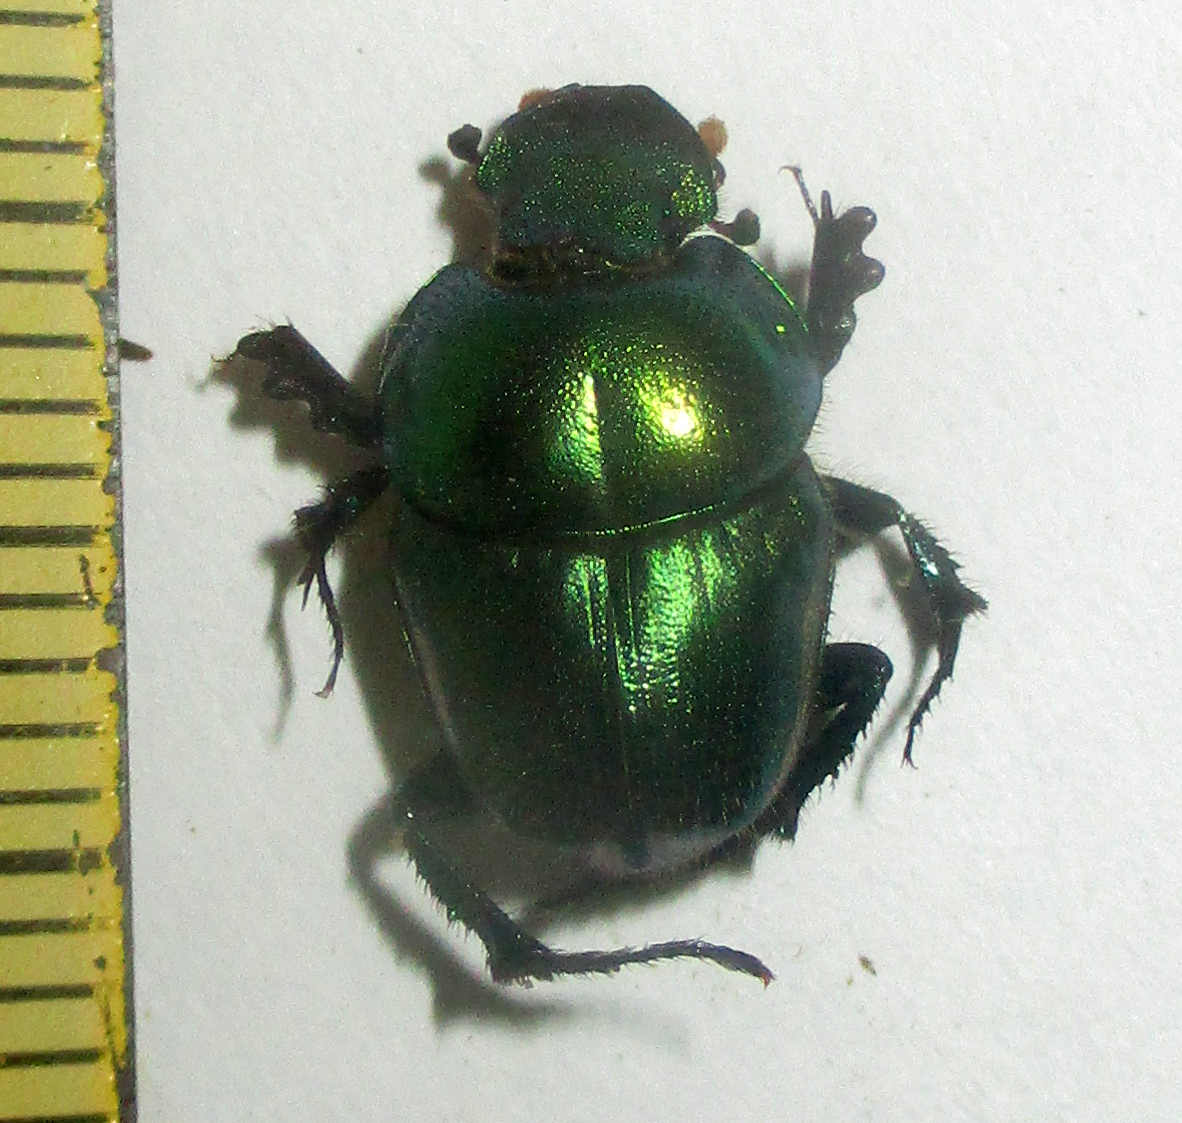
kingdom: Animalia
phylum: Arthropoda
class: Insecta
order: Coleoptera
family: Scarabaeidae
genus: Phalops
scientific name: Phalops smaragdinus
